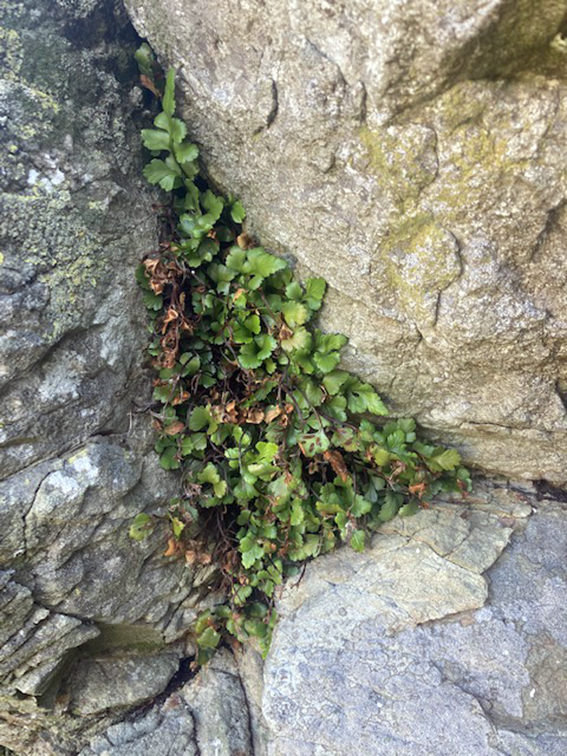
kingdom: Plantae
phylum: Tracheophyta
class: Polypodiopsida
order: Polypodiales
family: Aspleniaceae
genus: Asplenium
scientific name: Asplenium pauperequitum
